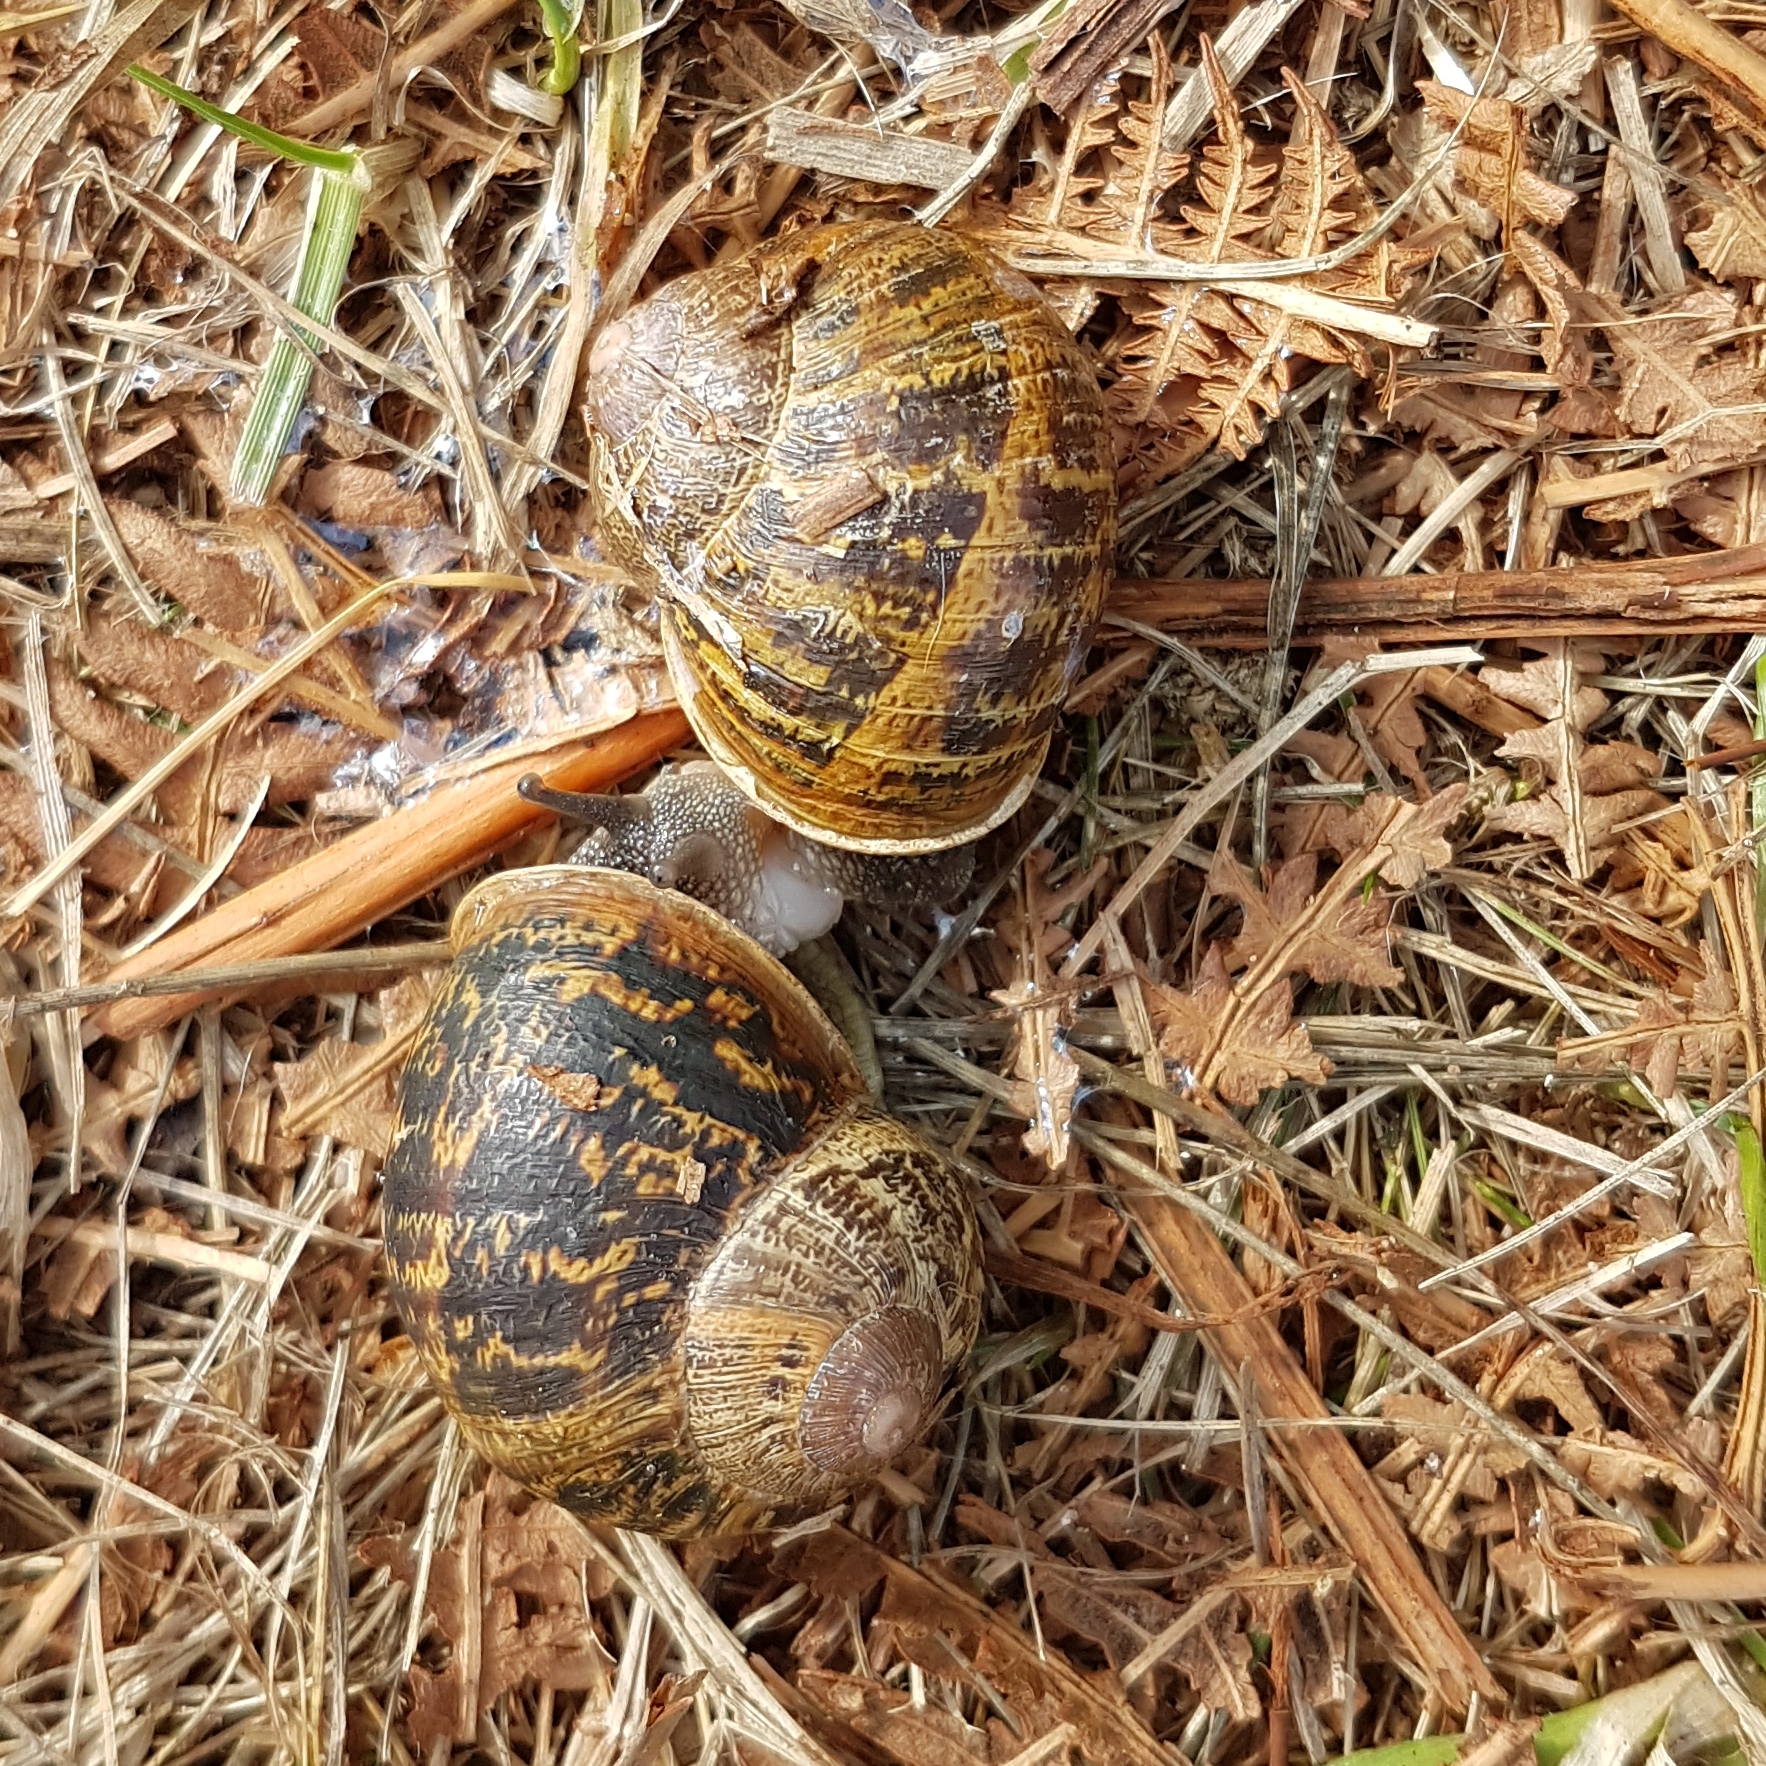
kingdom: Animalia
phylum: Mollusca
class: Gastropoda
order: Stylommatophora
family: Helicidae
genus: Cornu
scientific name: Cornu aspersum
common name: Brown garden snail
